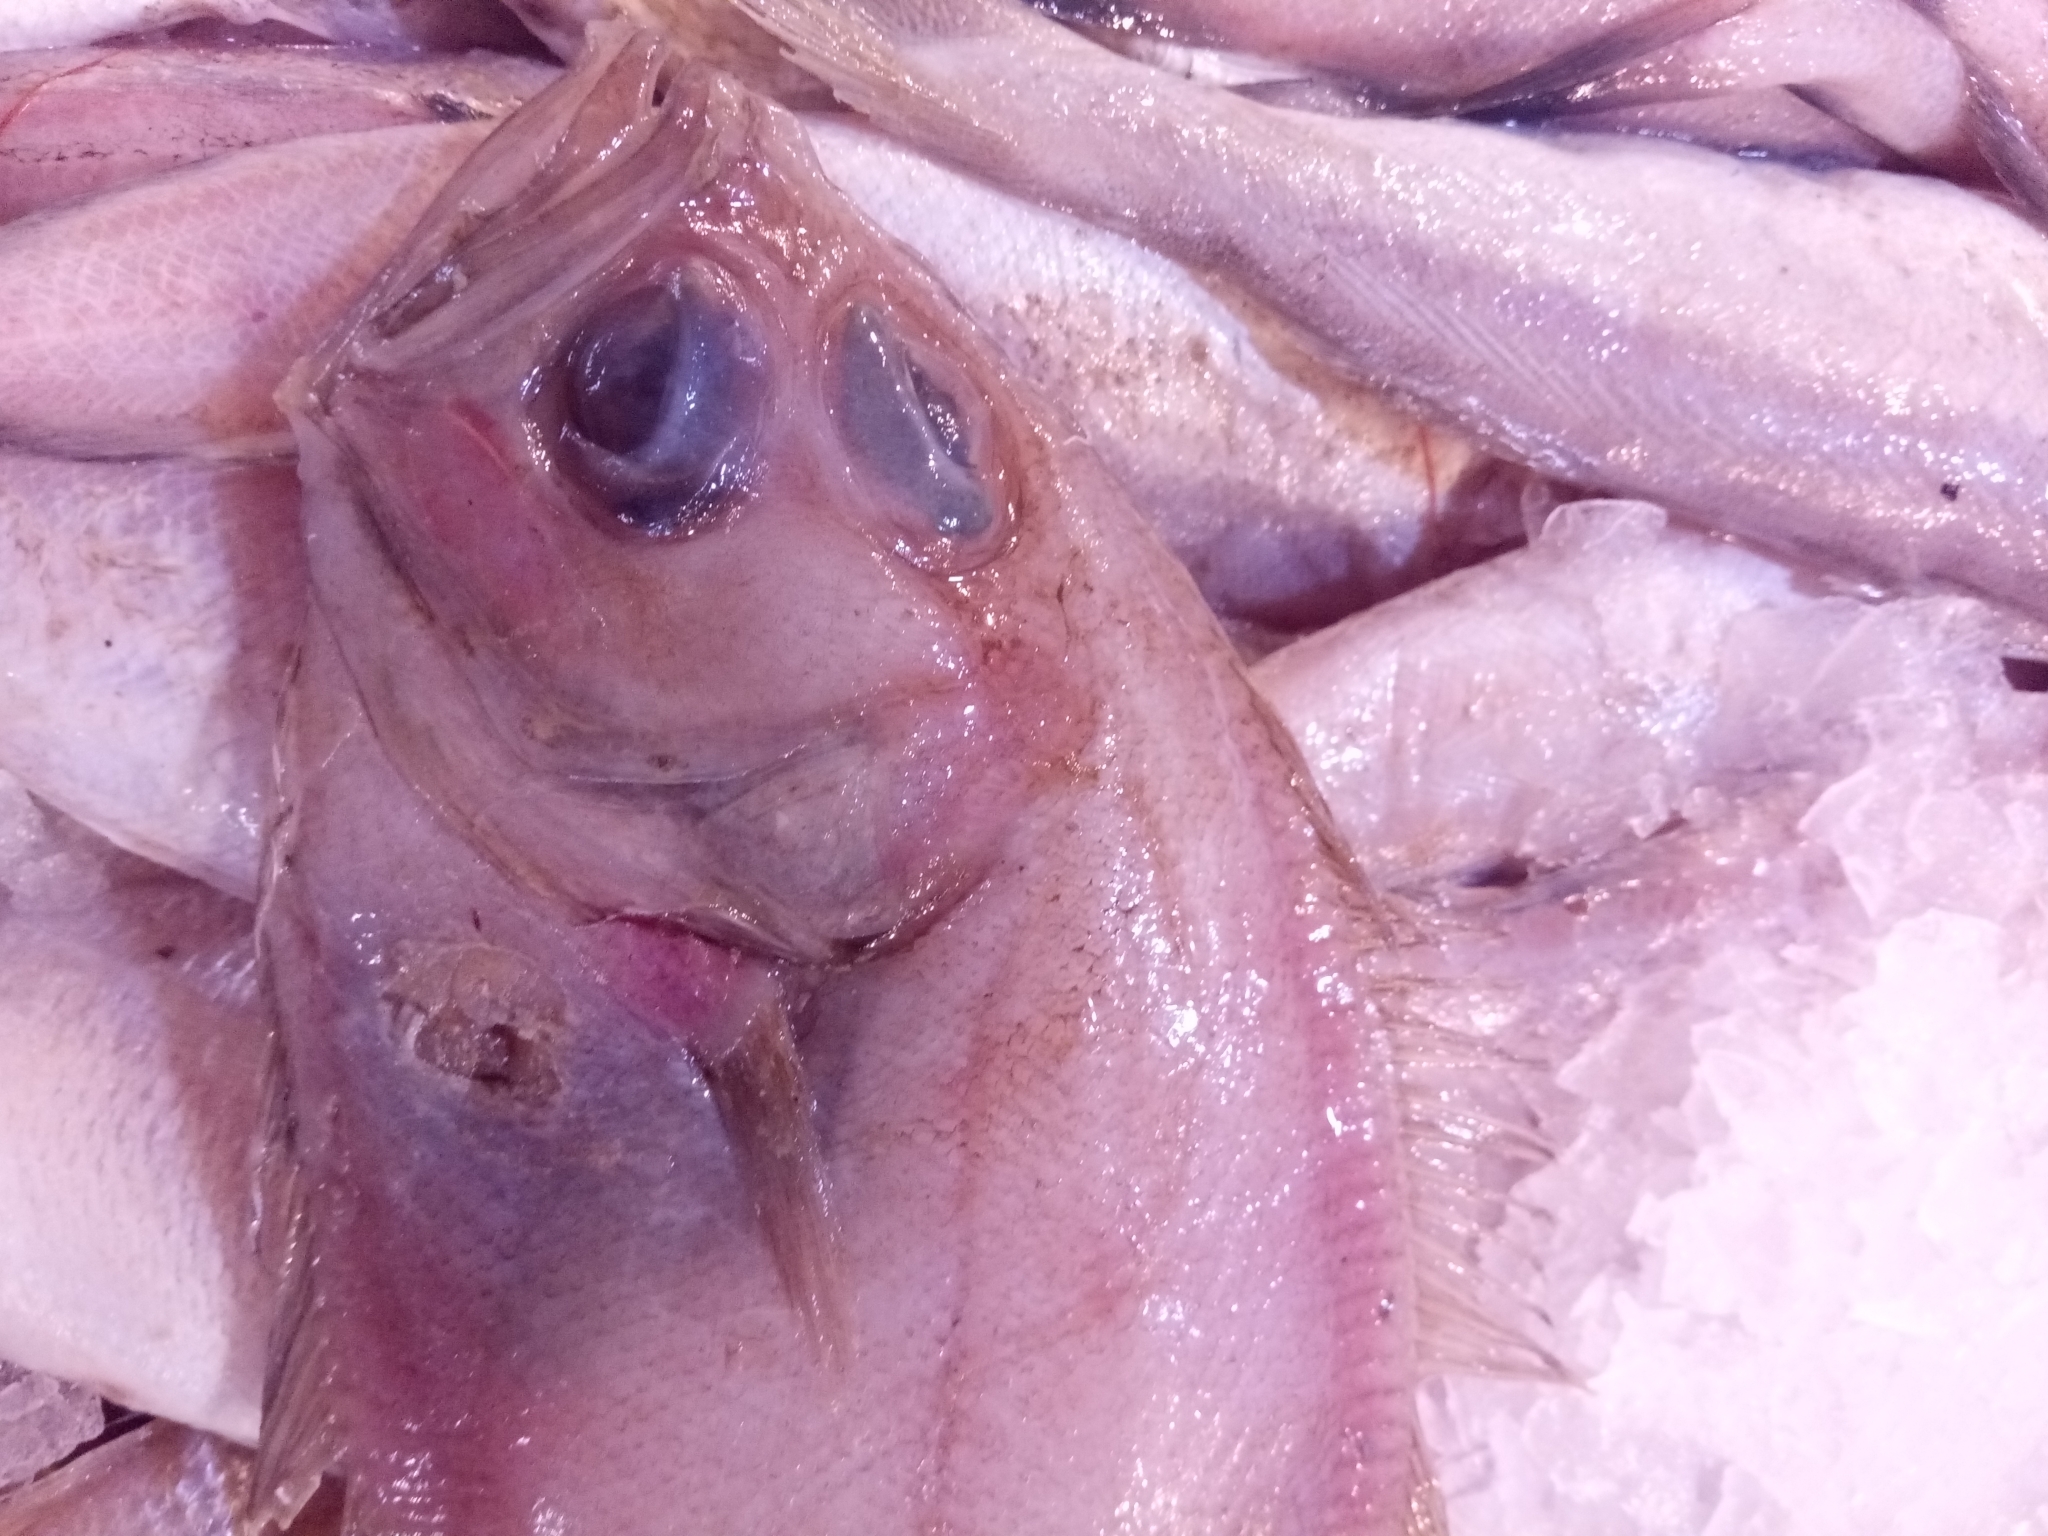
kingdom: Animalia
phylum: Chordata
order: Pleuronectiformes
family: Scophthalmidae
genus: Lepidorhombus
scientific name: Lepidorhombus boscii
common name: Megrim
